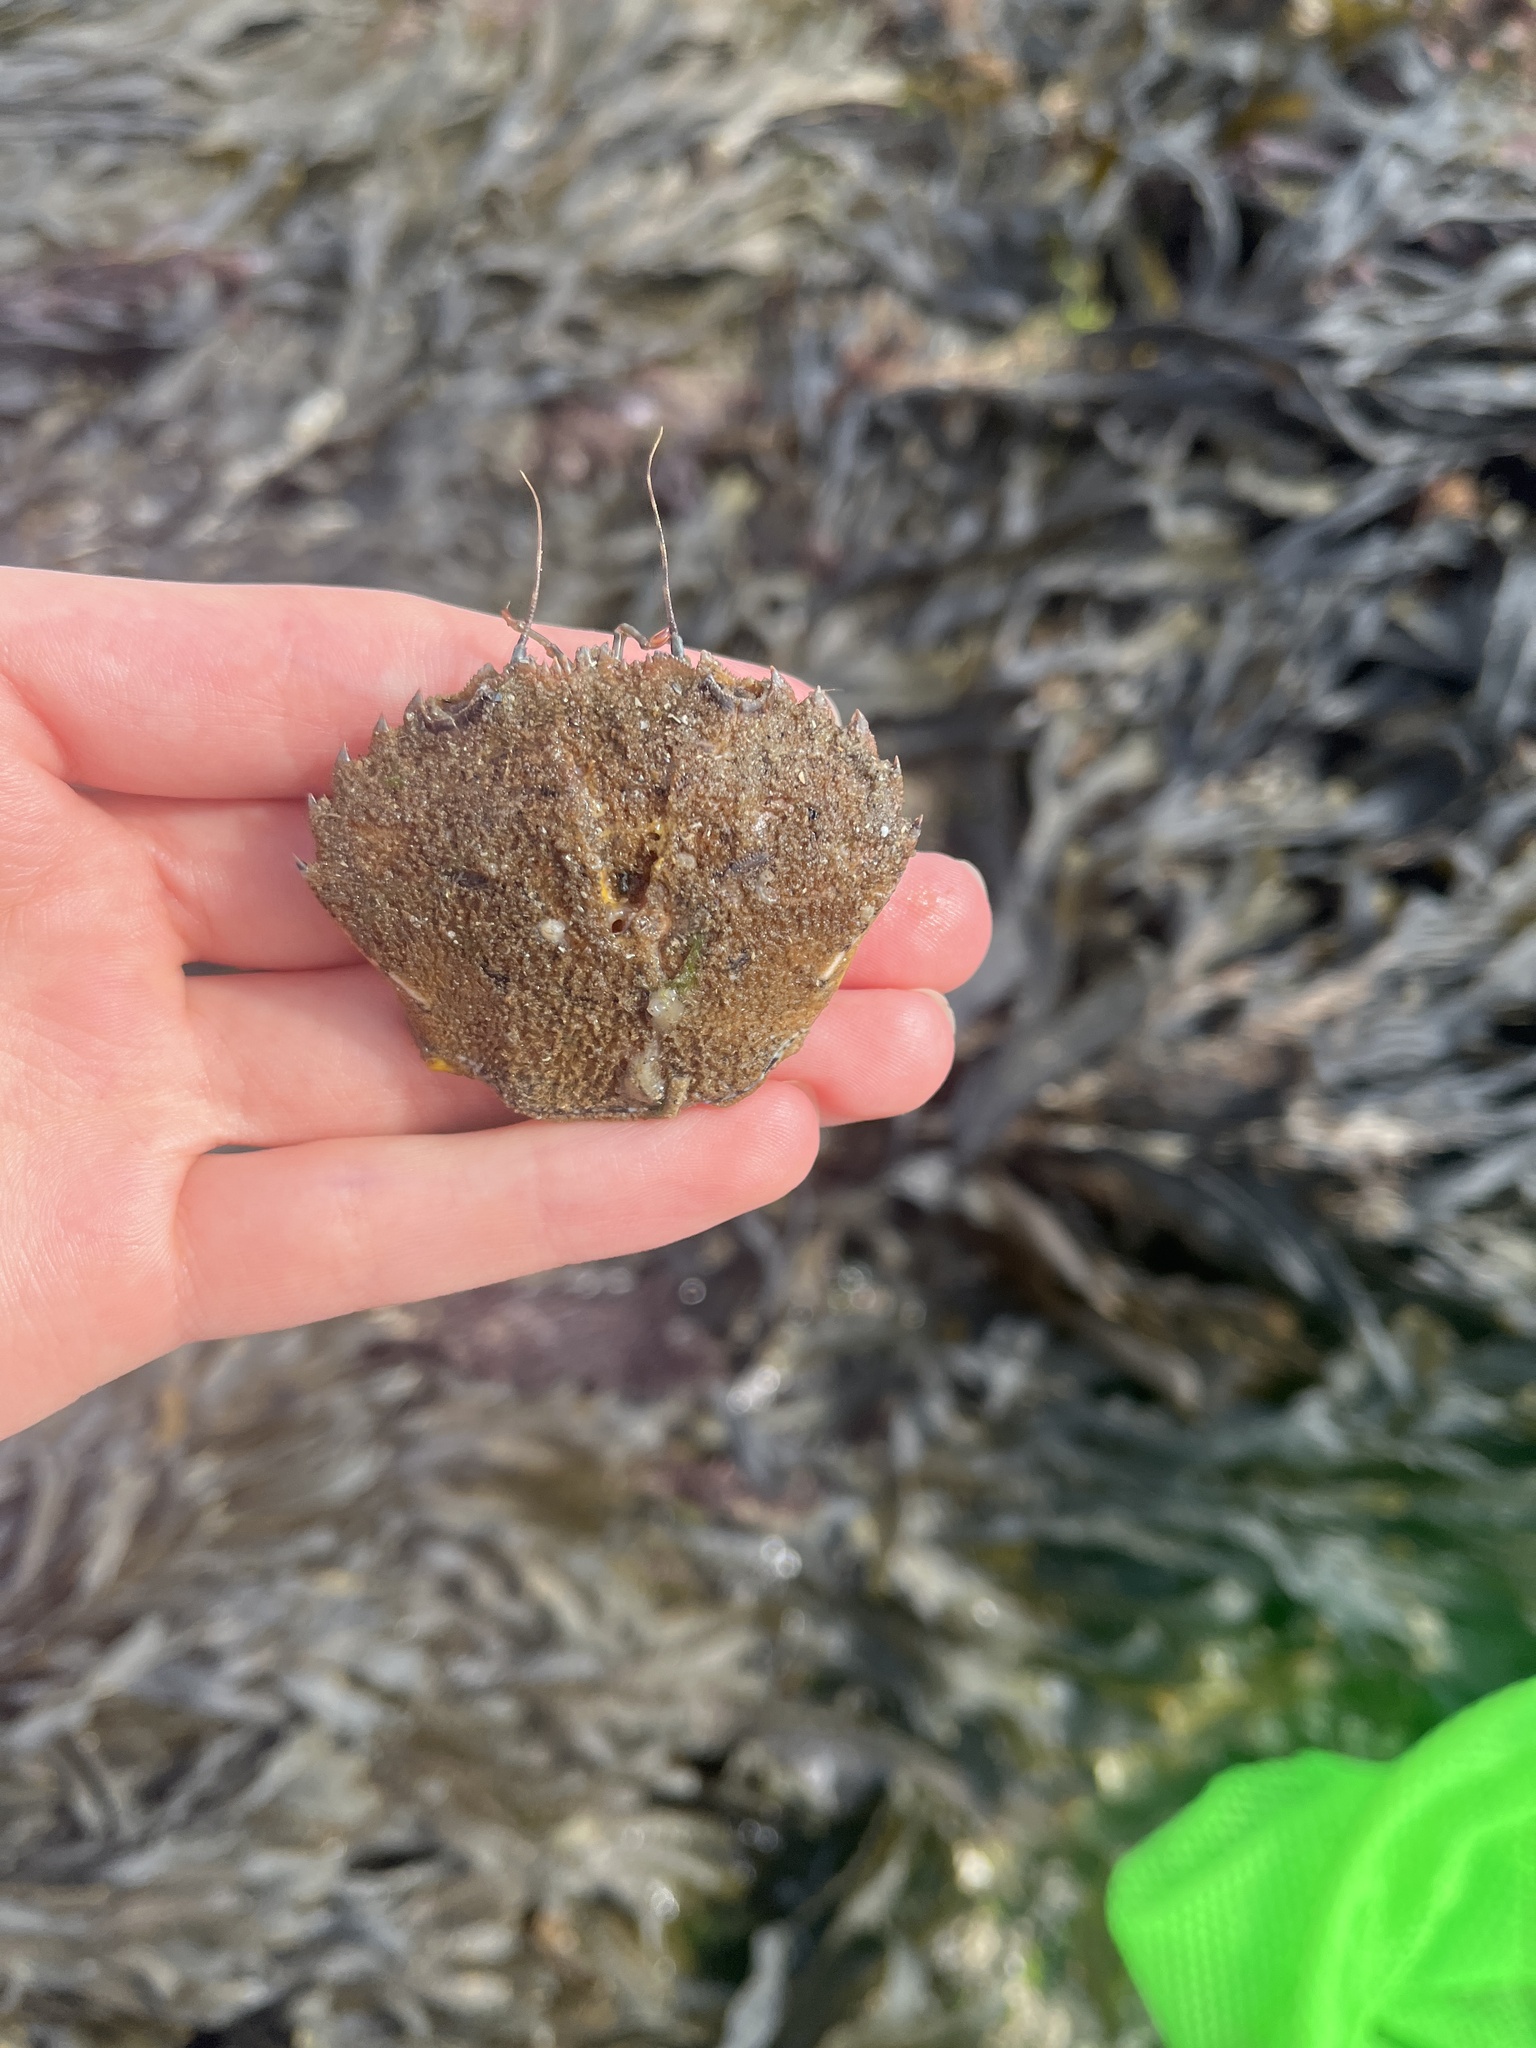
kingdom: Animalia
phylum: Arthropoda
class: Malacostraca
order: Decapoda
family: Polybiidae
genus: Necora
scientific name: Necora puber
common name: Velvet swimming crab
